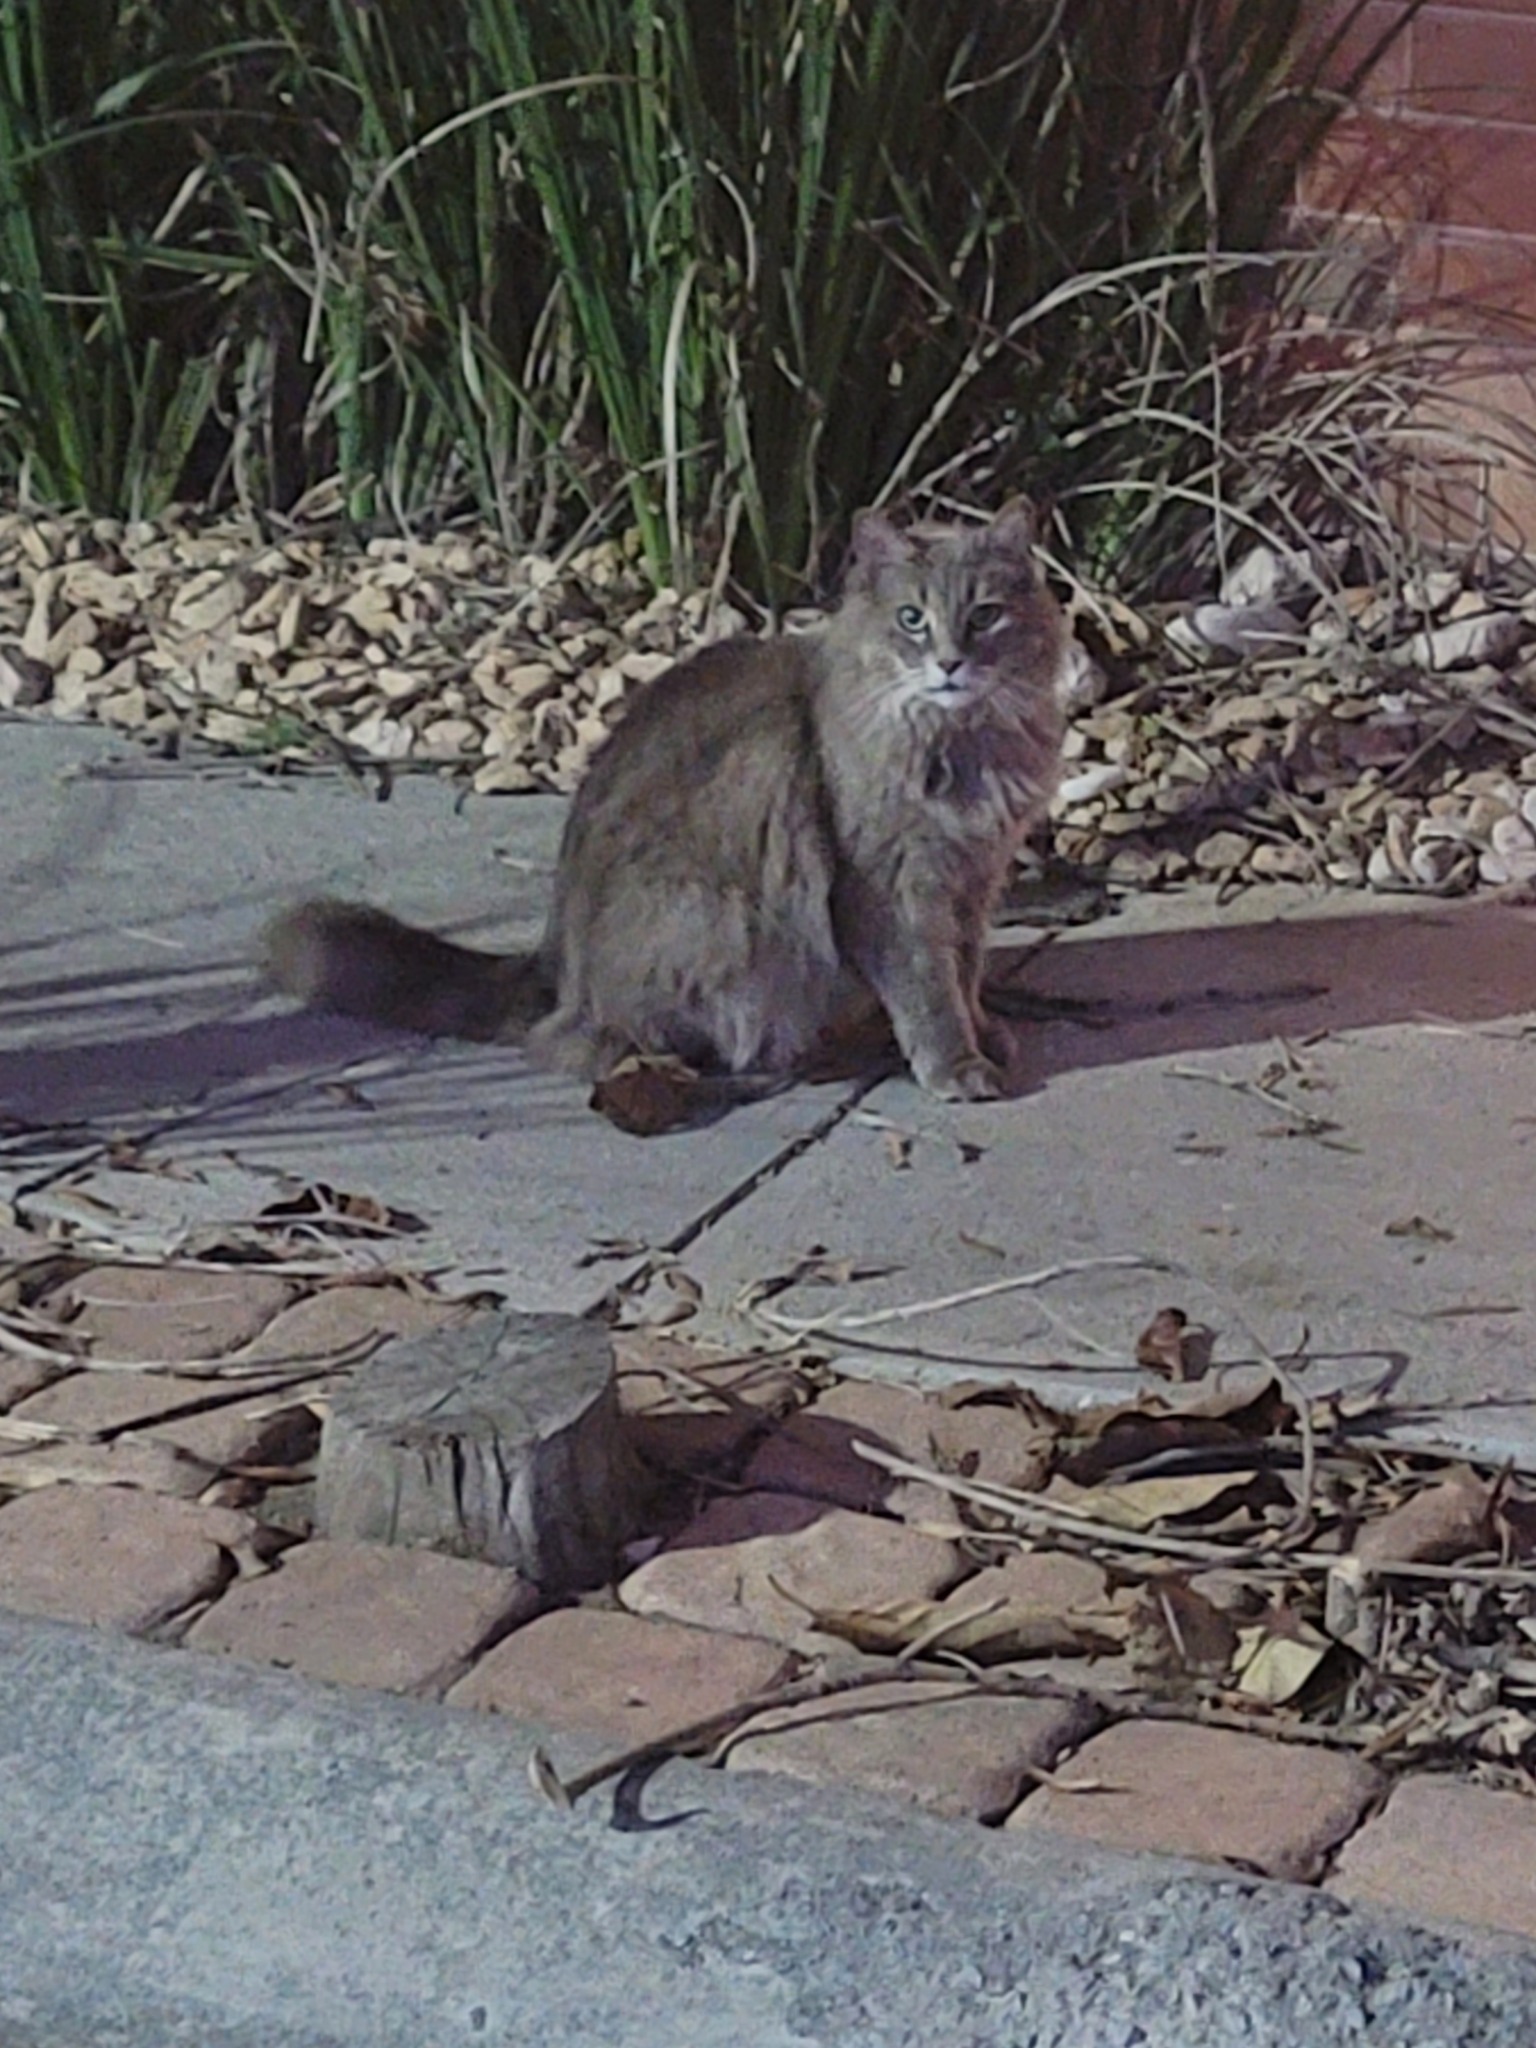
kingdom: Animalia
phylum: Chordata
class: Mammalia
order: Carnivora
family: Felidae
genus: Felis
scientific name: Felis catus
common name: Domestic cat
